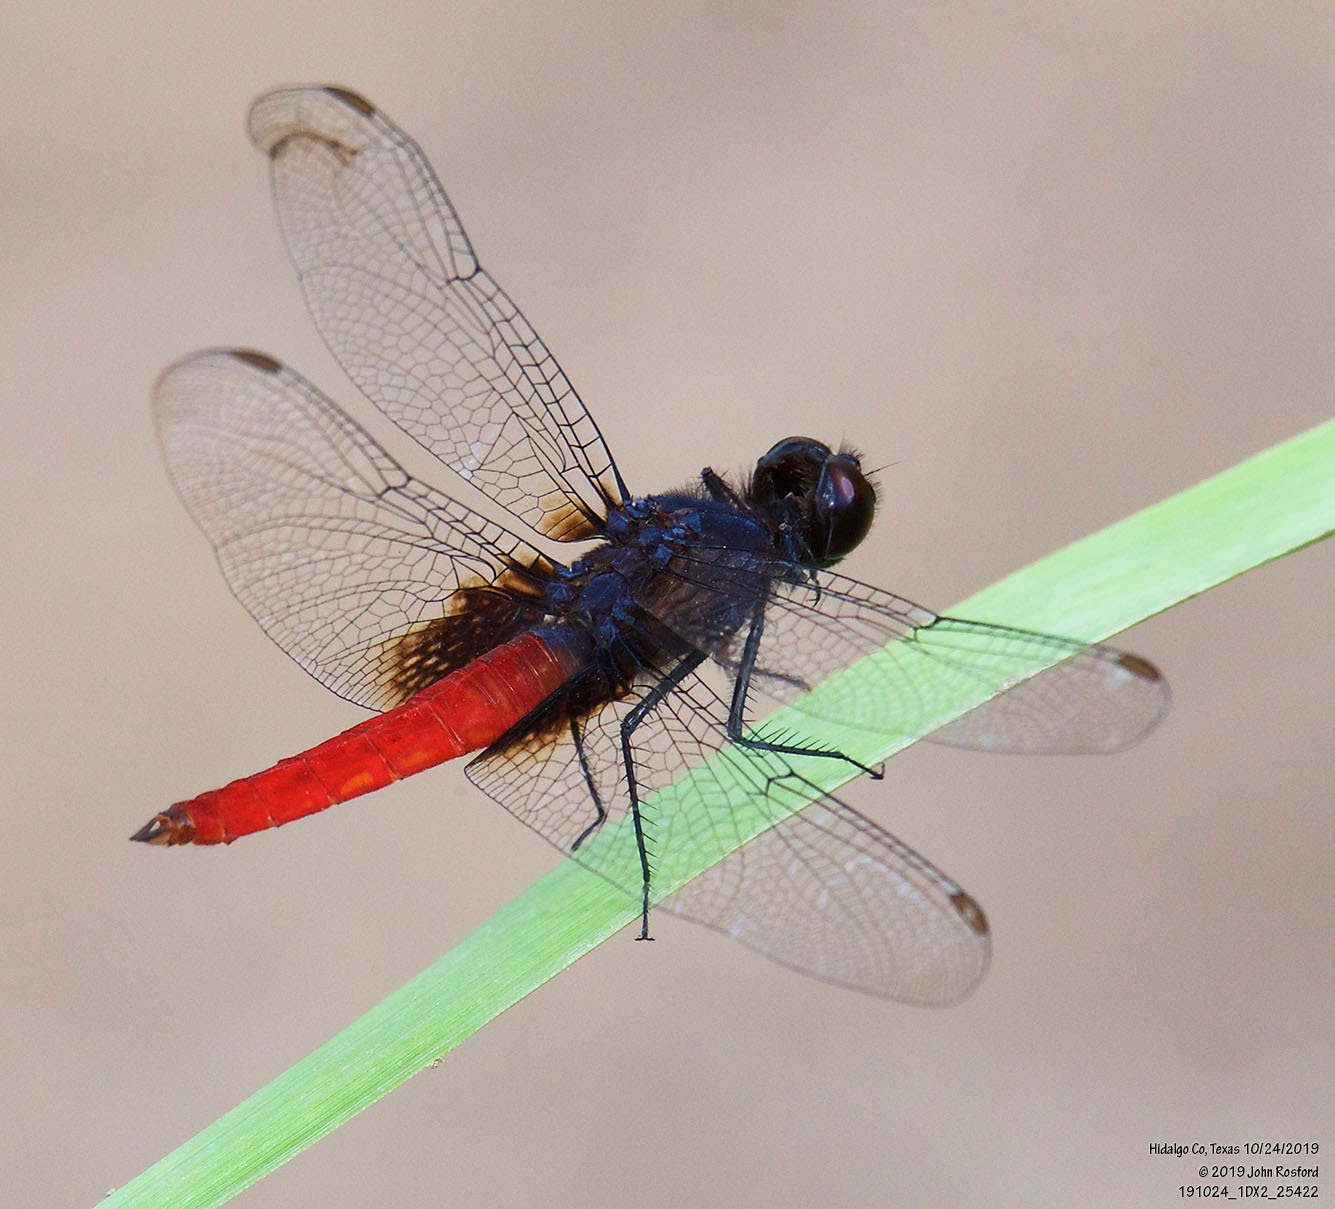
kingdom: Animalia
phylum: Arthropoda
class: Insecta
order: Odonata
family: Libellulidae
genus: Planiplax
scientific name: Planiplax sanguiniventris
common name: Mexican scarlet-tail
